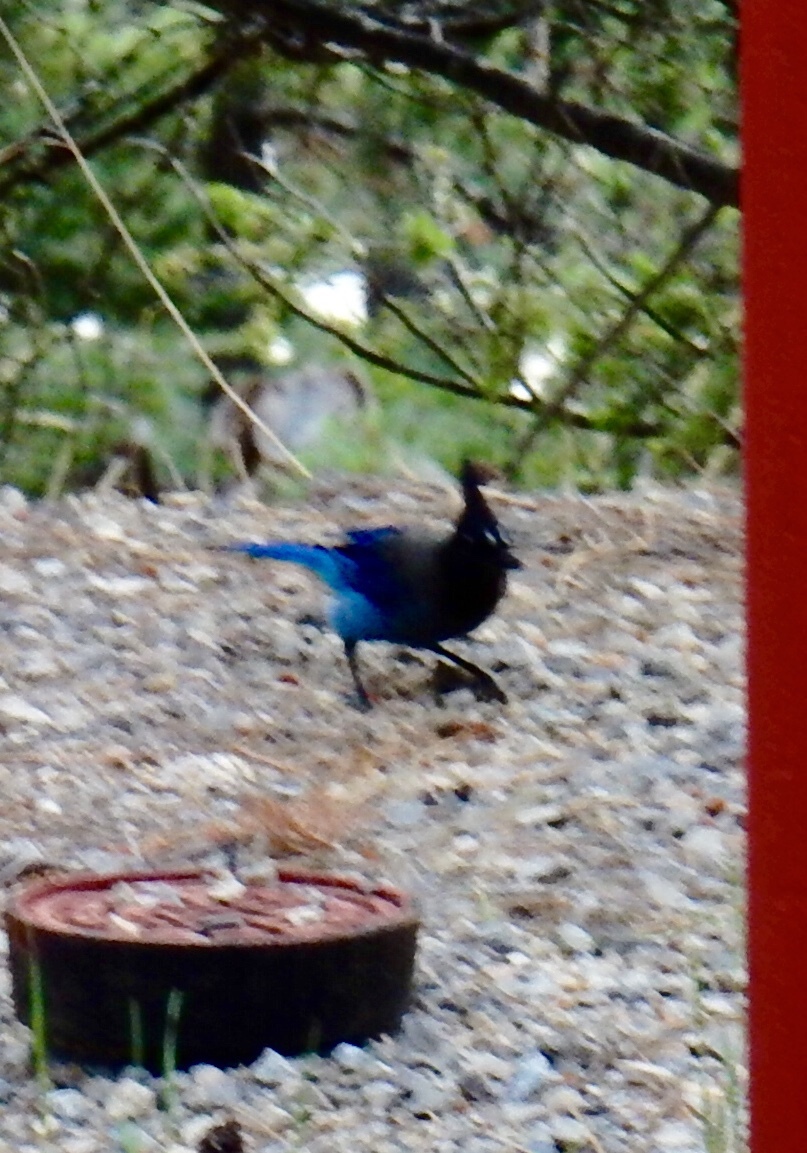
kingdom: Animalia
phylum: Chordata
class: Aves
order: Passeriformes
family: Corvidae
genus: Cyanocitta
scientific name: Cyanocitta stelleri
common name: Steller's jay
